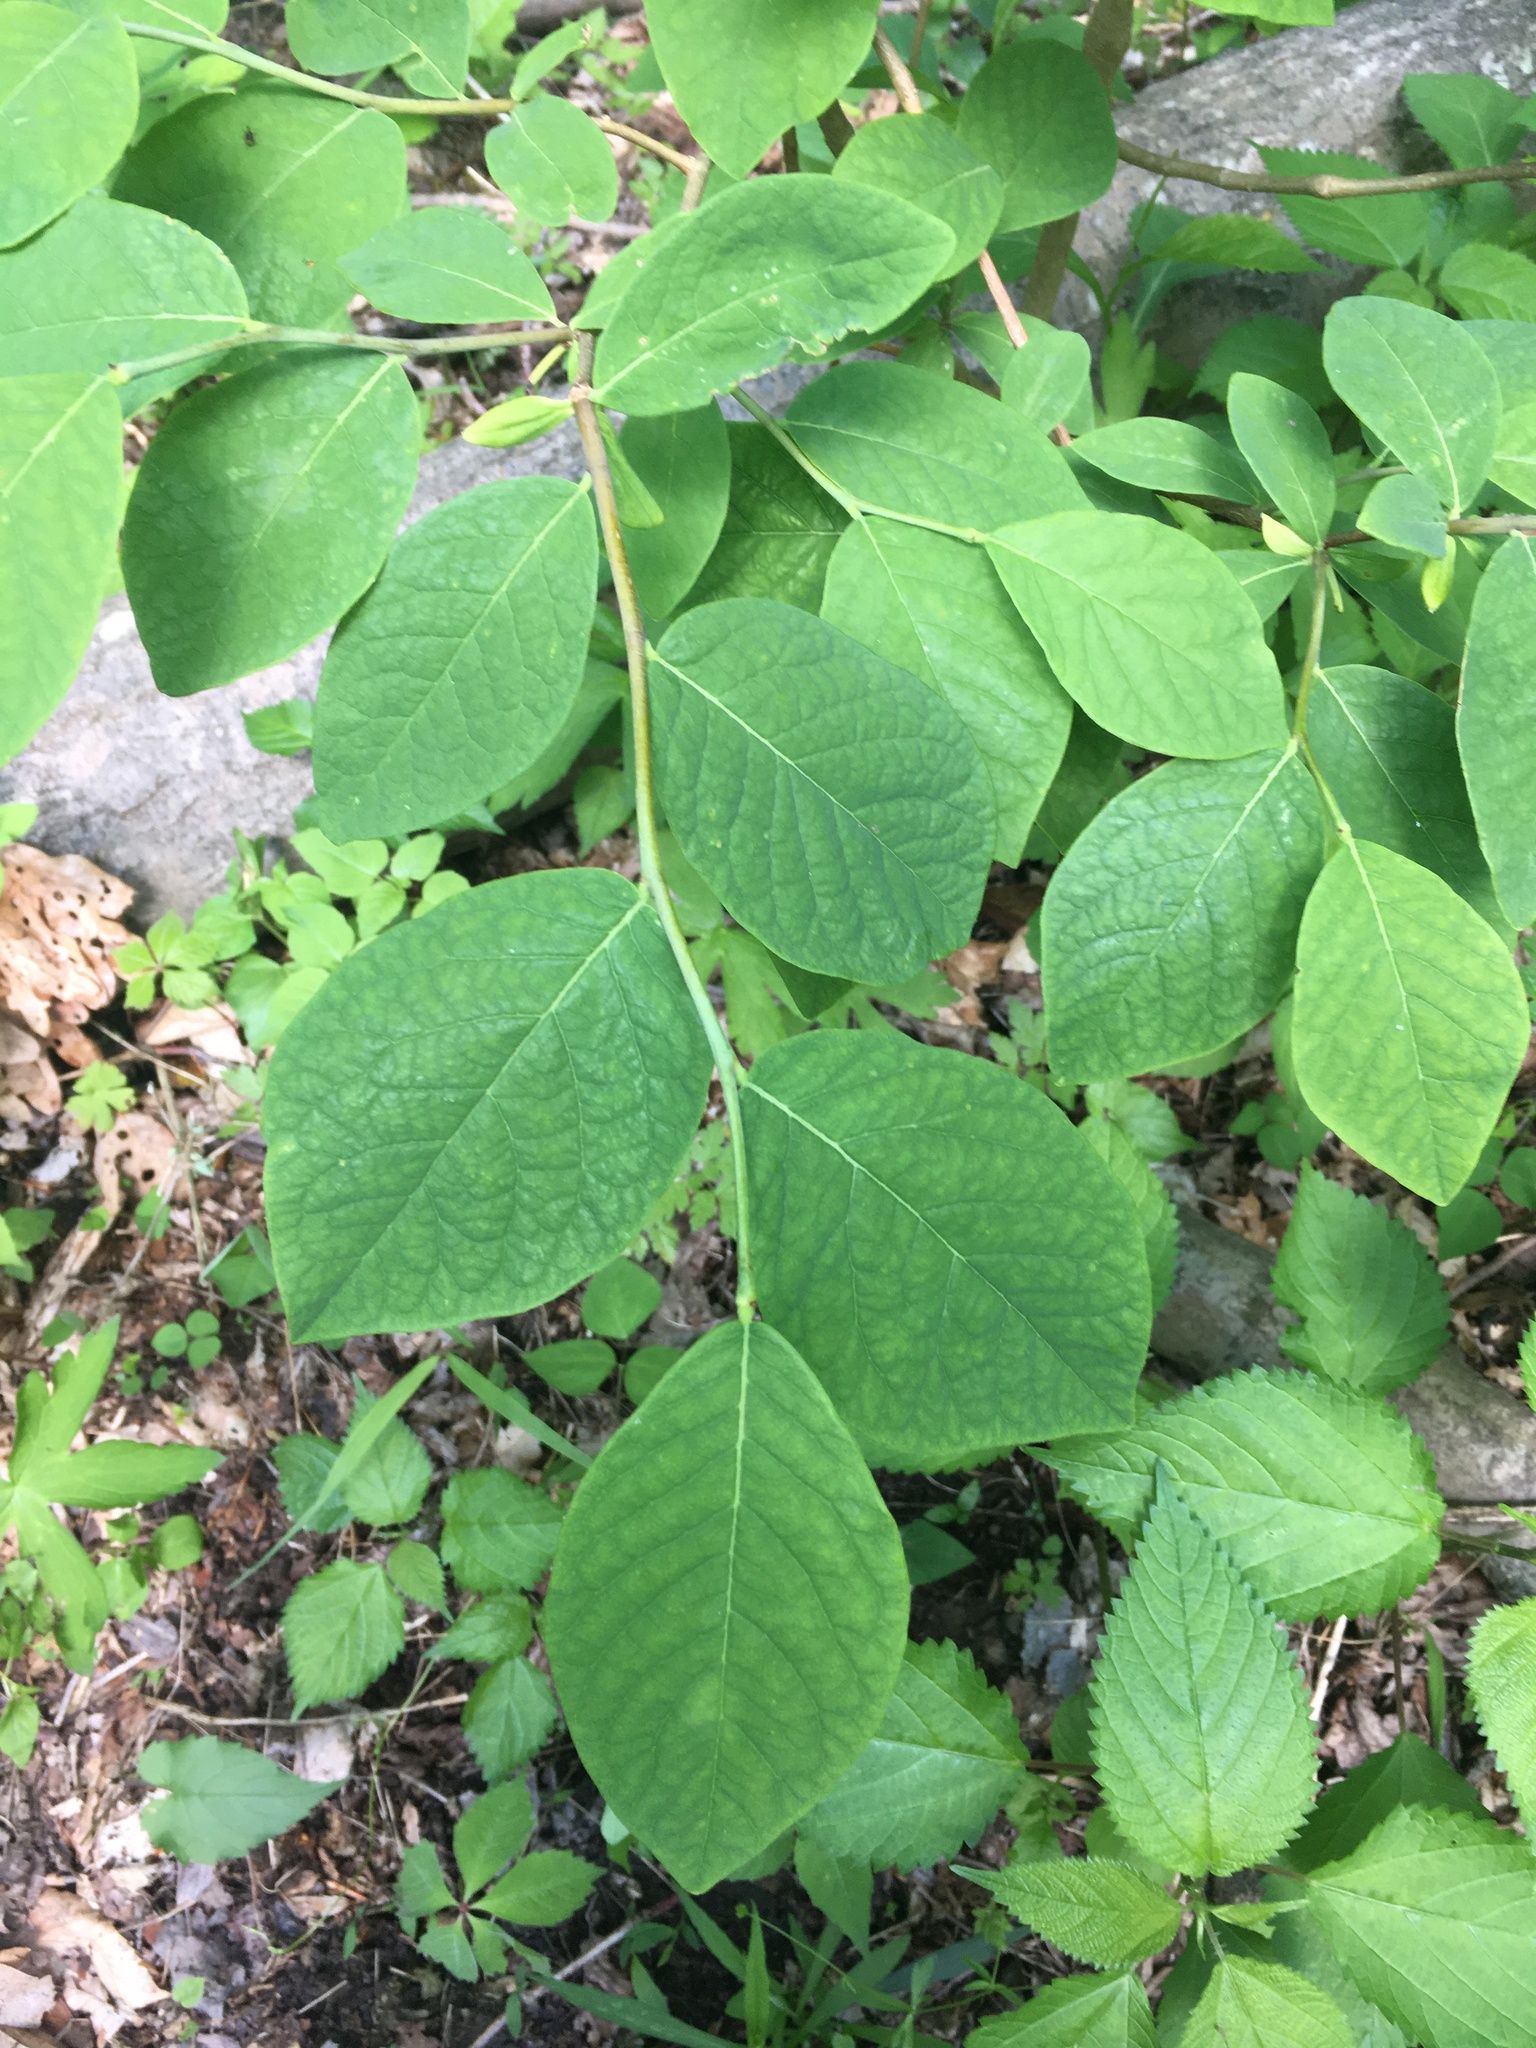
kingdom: Plantae
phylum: Tracheophyta
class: Magnoliopsida
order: Malvales
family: Thymelaeaceae
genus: Dirca
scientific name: Dirca palustris
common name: Leatherwood
